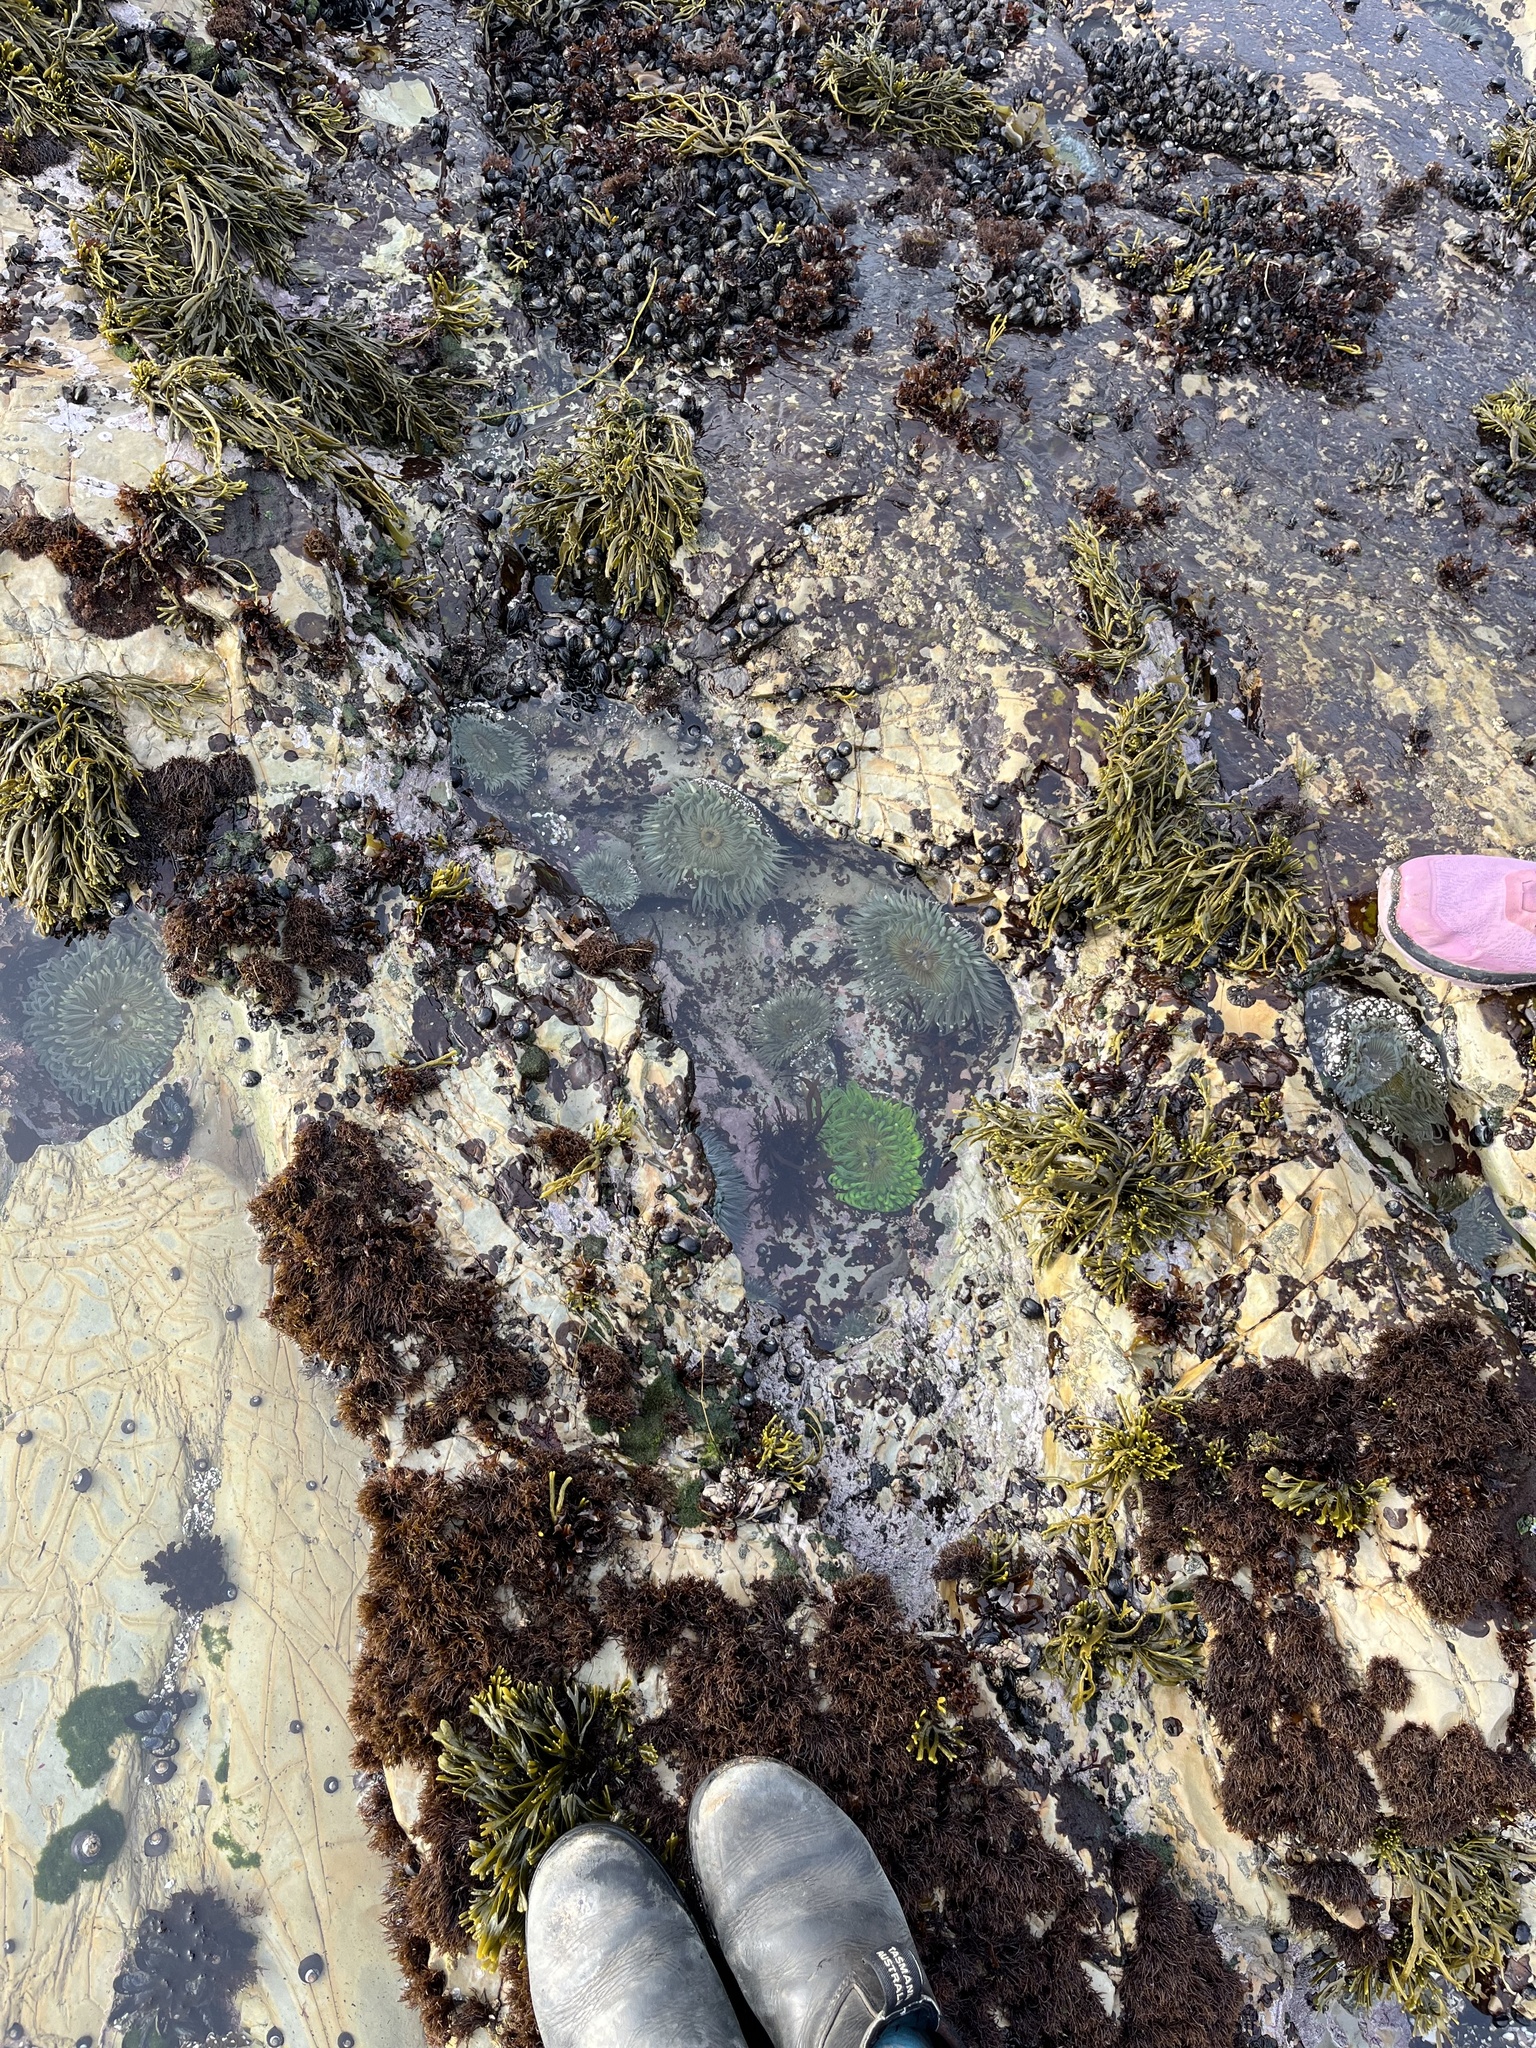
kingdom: Animalia
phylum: Cnidaria
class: Anthozoa
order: Actiniaria
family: Actiniidae
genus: Anthopleura
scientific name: Anthopleura sola
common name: Sun anemone
